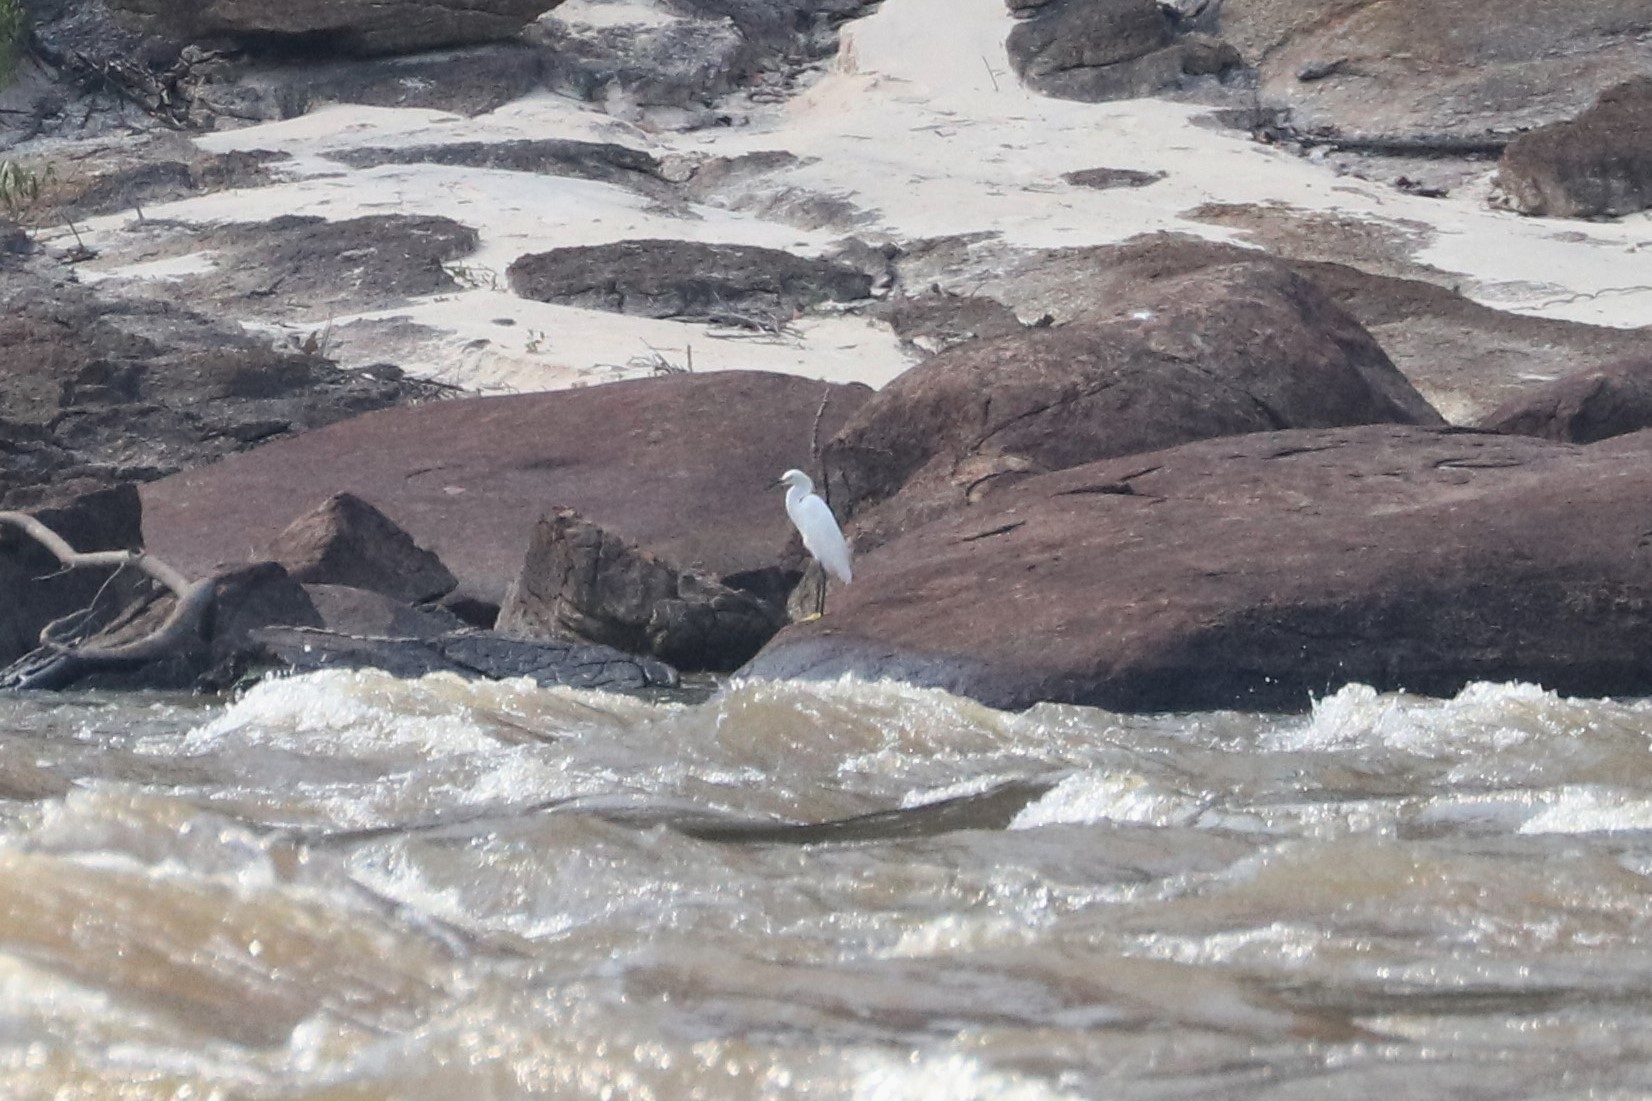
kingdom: Animalia
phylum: Chordata
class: Aves
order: Pelecaniformes
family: Ardeidae
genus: Egretta
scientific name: Egretta thula
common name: Snowy egret
